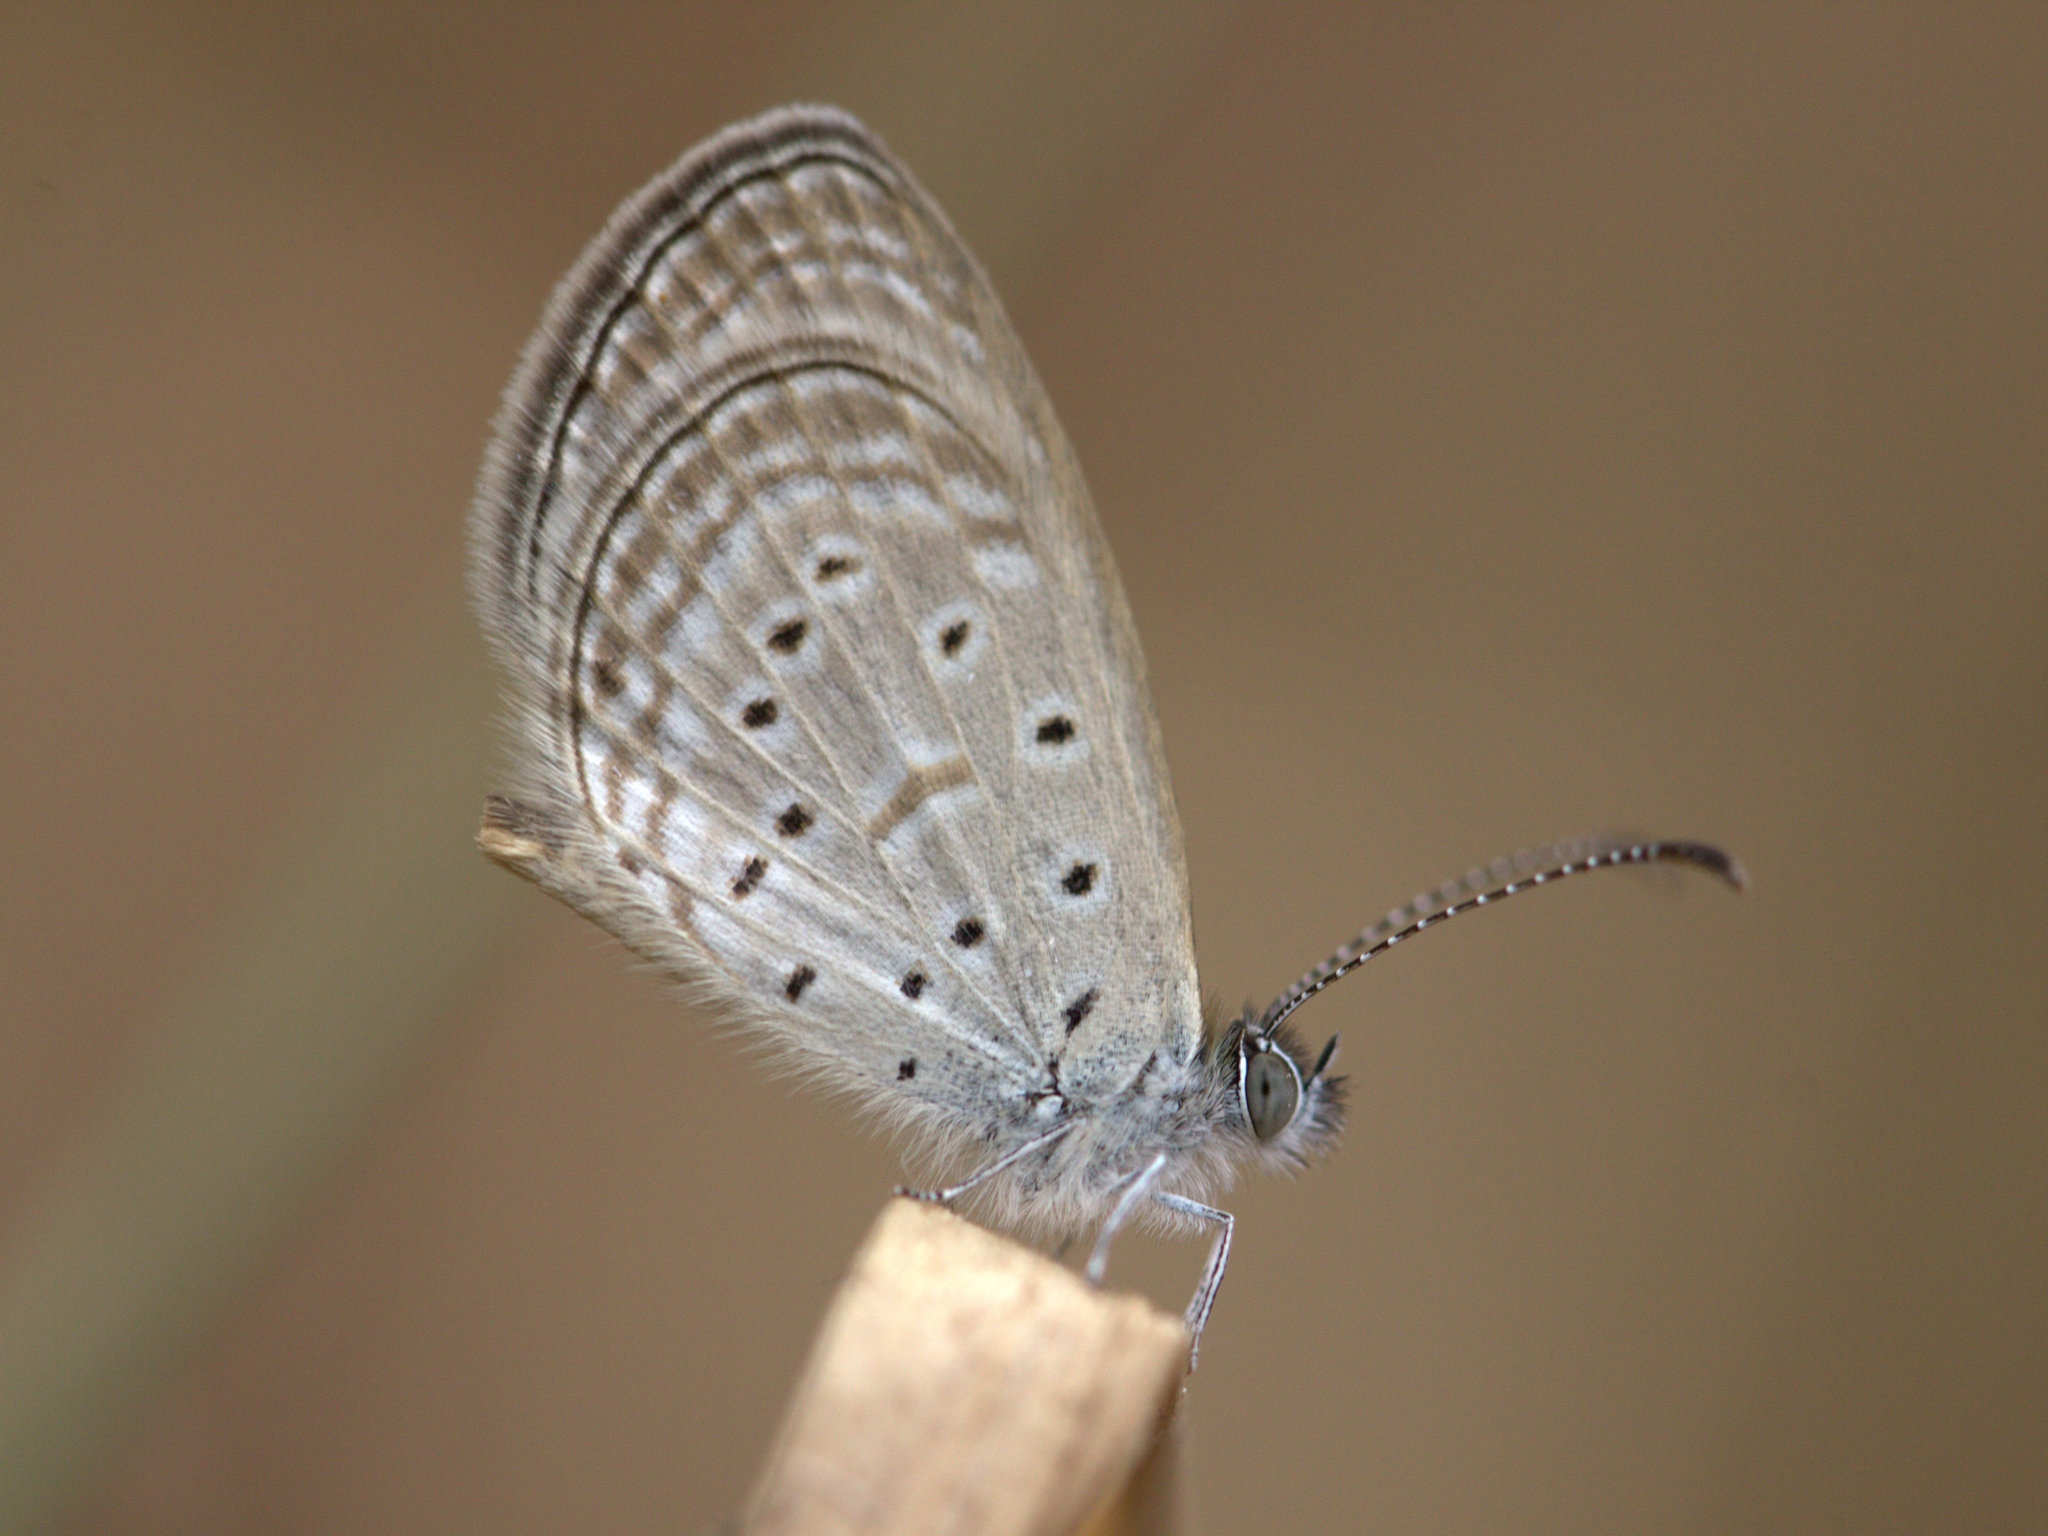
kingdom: Animalia
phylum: Arthropoda
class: Insecta
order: Lepidoptera
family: Lycaenidae
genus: Zizula
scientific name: Zizula hylax
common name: Gaika blue
